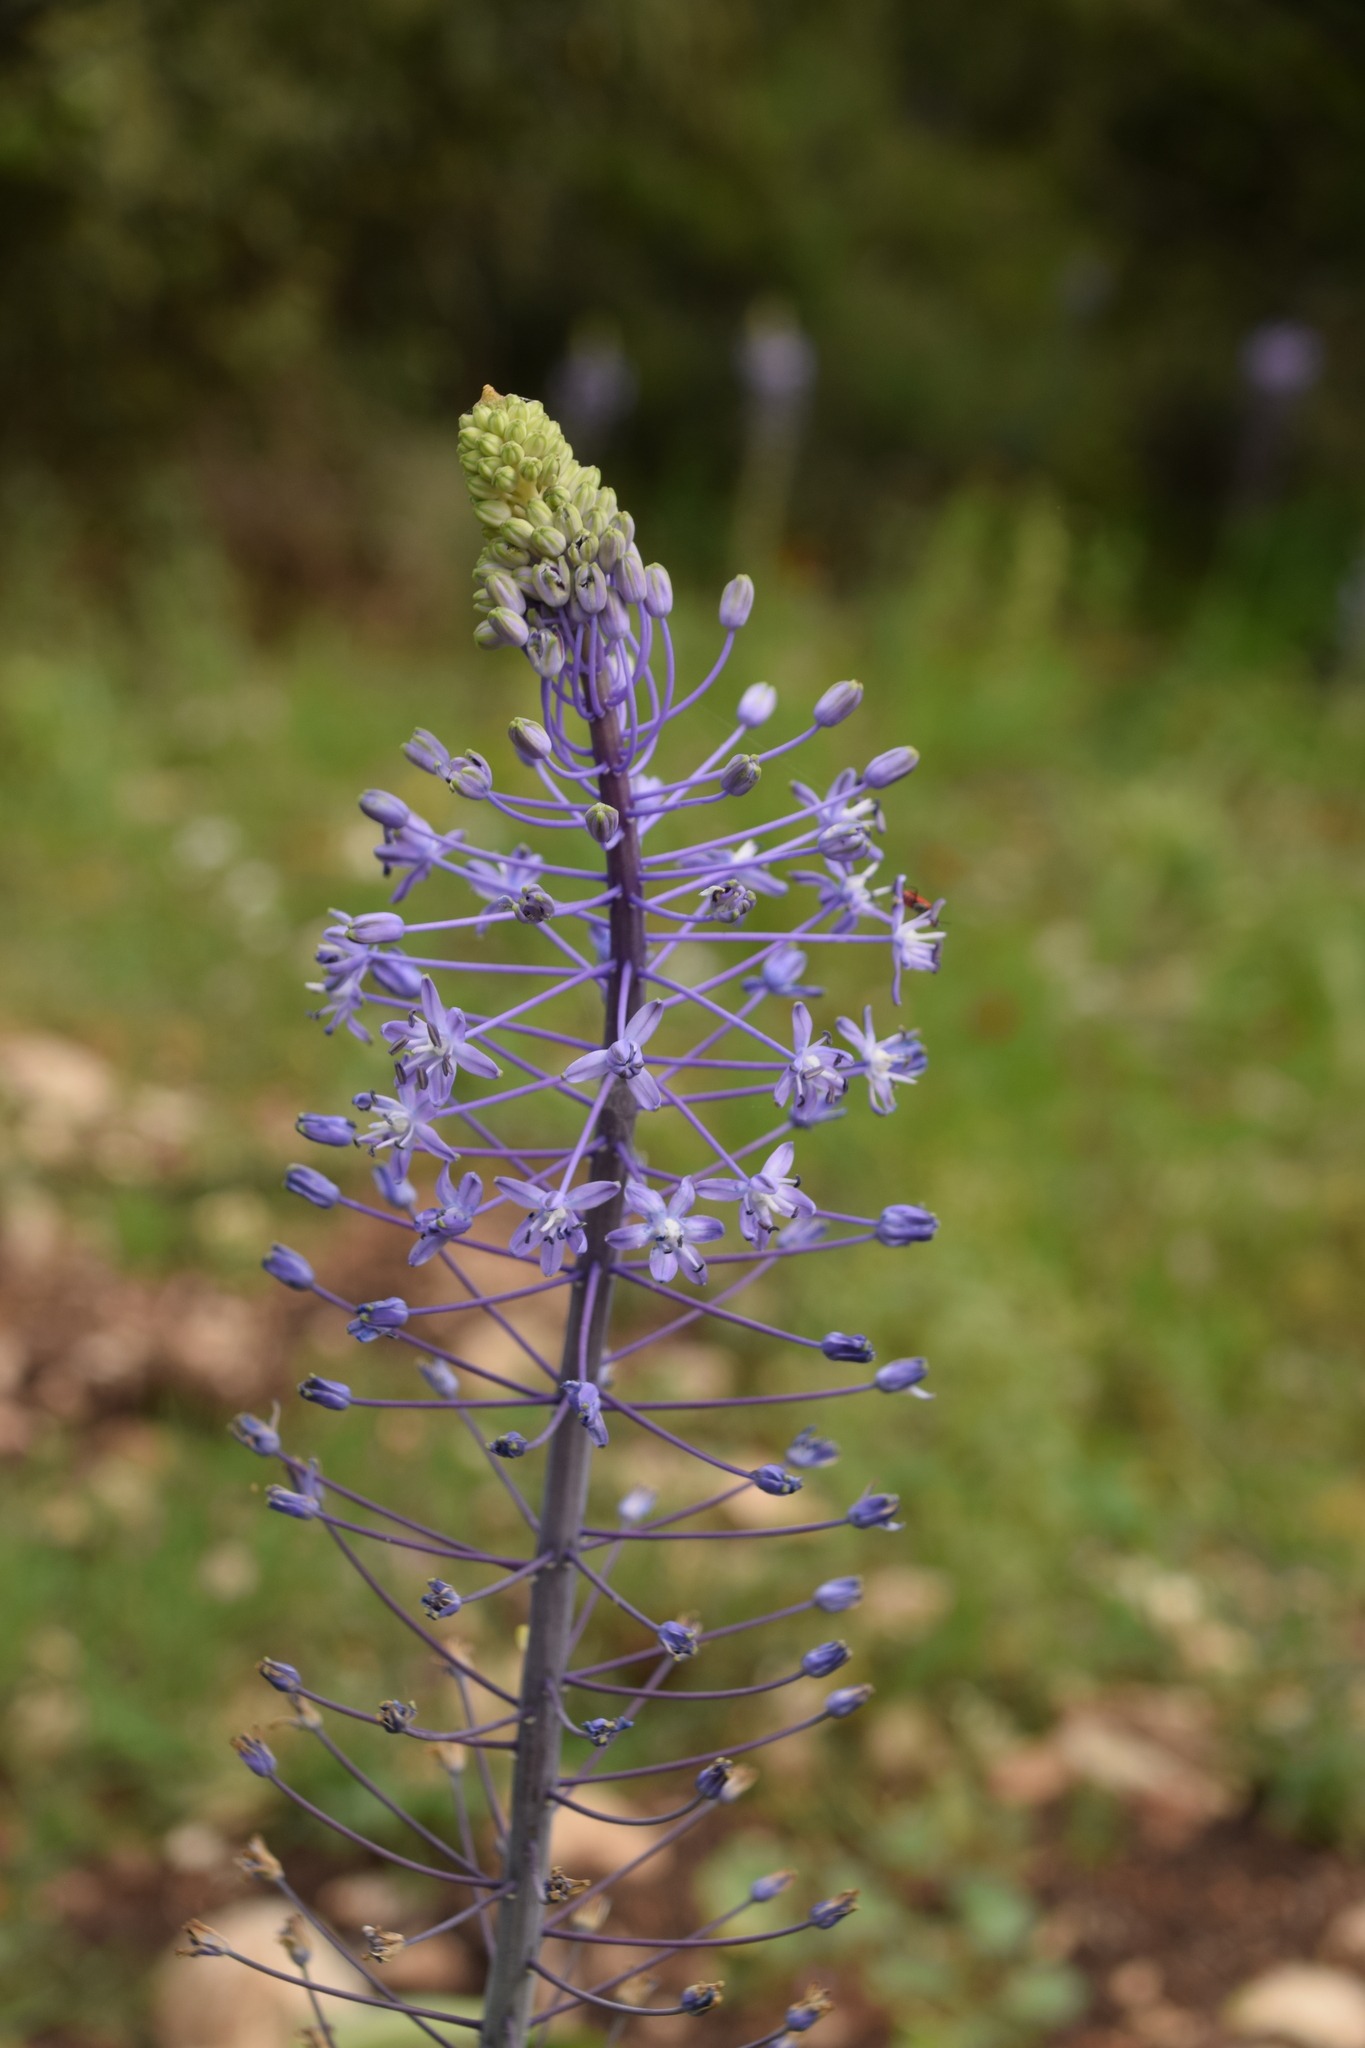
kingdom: Plantae
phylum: Tracheophyta
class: Liliopsida
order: Asparagales
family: Asparagaceae
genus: Scilla
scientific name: Scilla hyacinthoides
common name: Scilla
